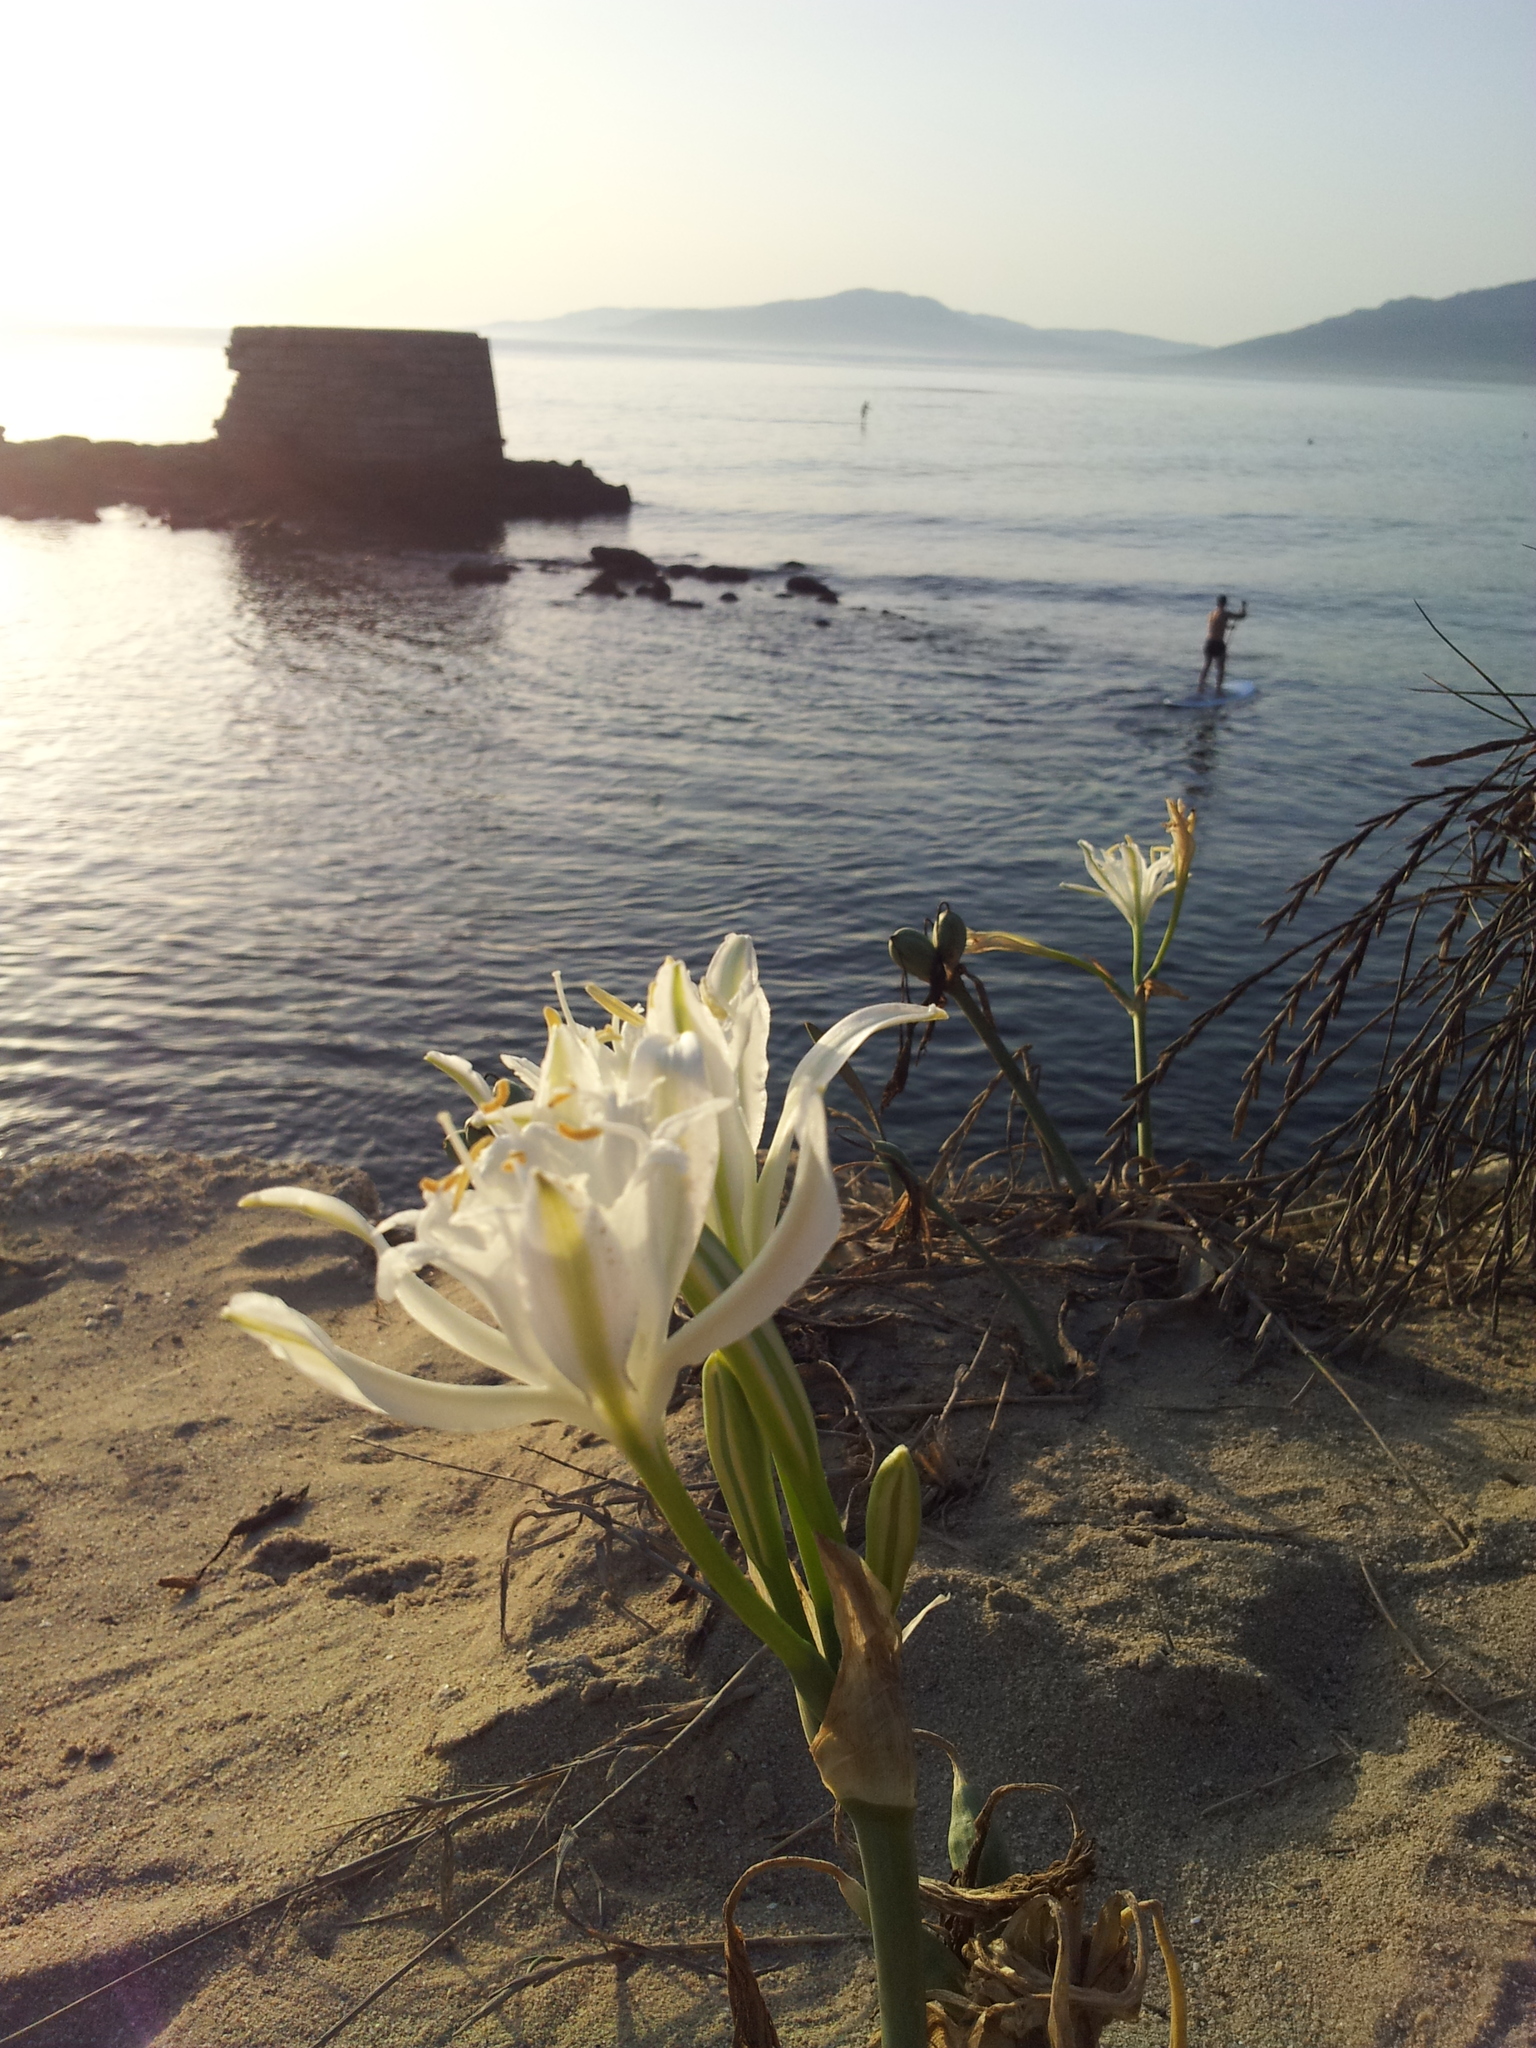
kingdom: Plantae
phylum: Tracheophyta
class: Liliopsida
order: Asparagales
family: Amaryllidaceae
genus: Pancratium
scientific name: Pancratium maritimum
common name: Sea-daffodil
